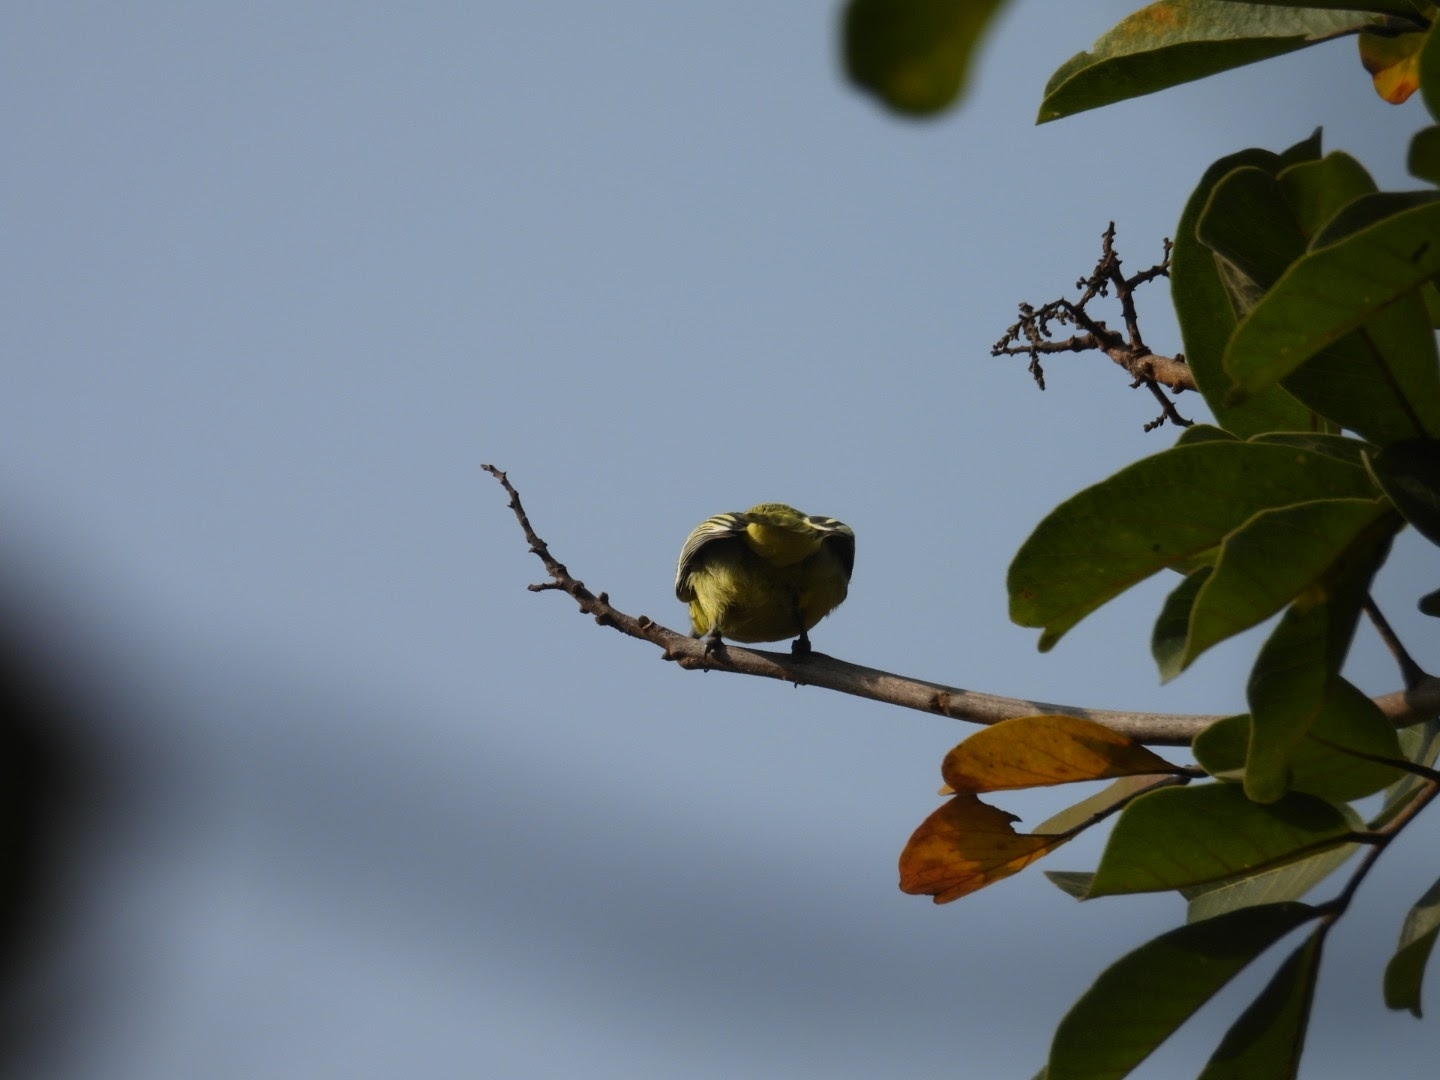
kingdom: Animalia
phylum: Chordata
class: Aves
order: Passeriformes
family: Aegithinidae
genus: Aegithina
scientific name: Aegithina tiphia
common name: Common iora
